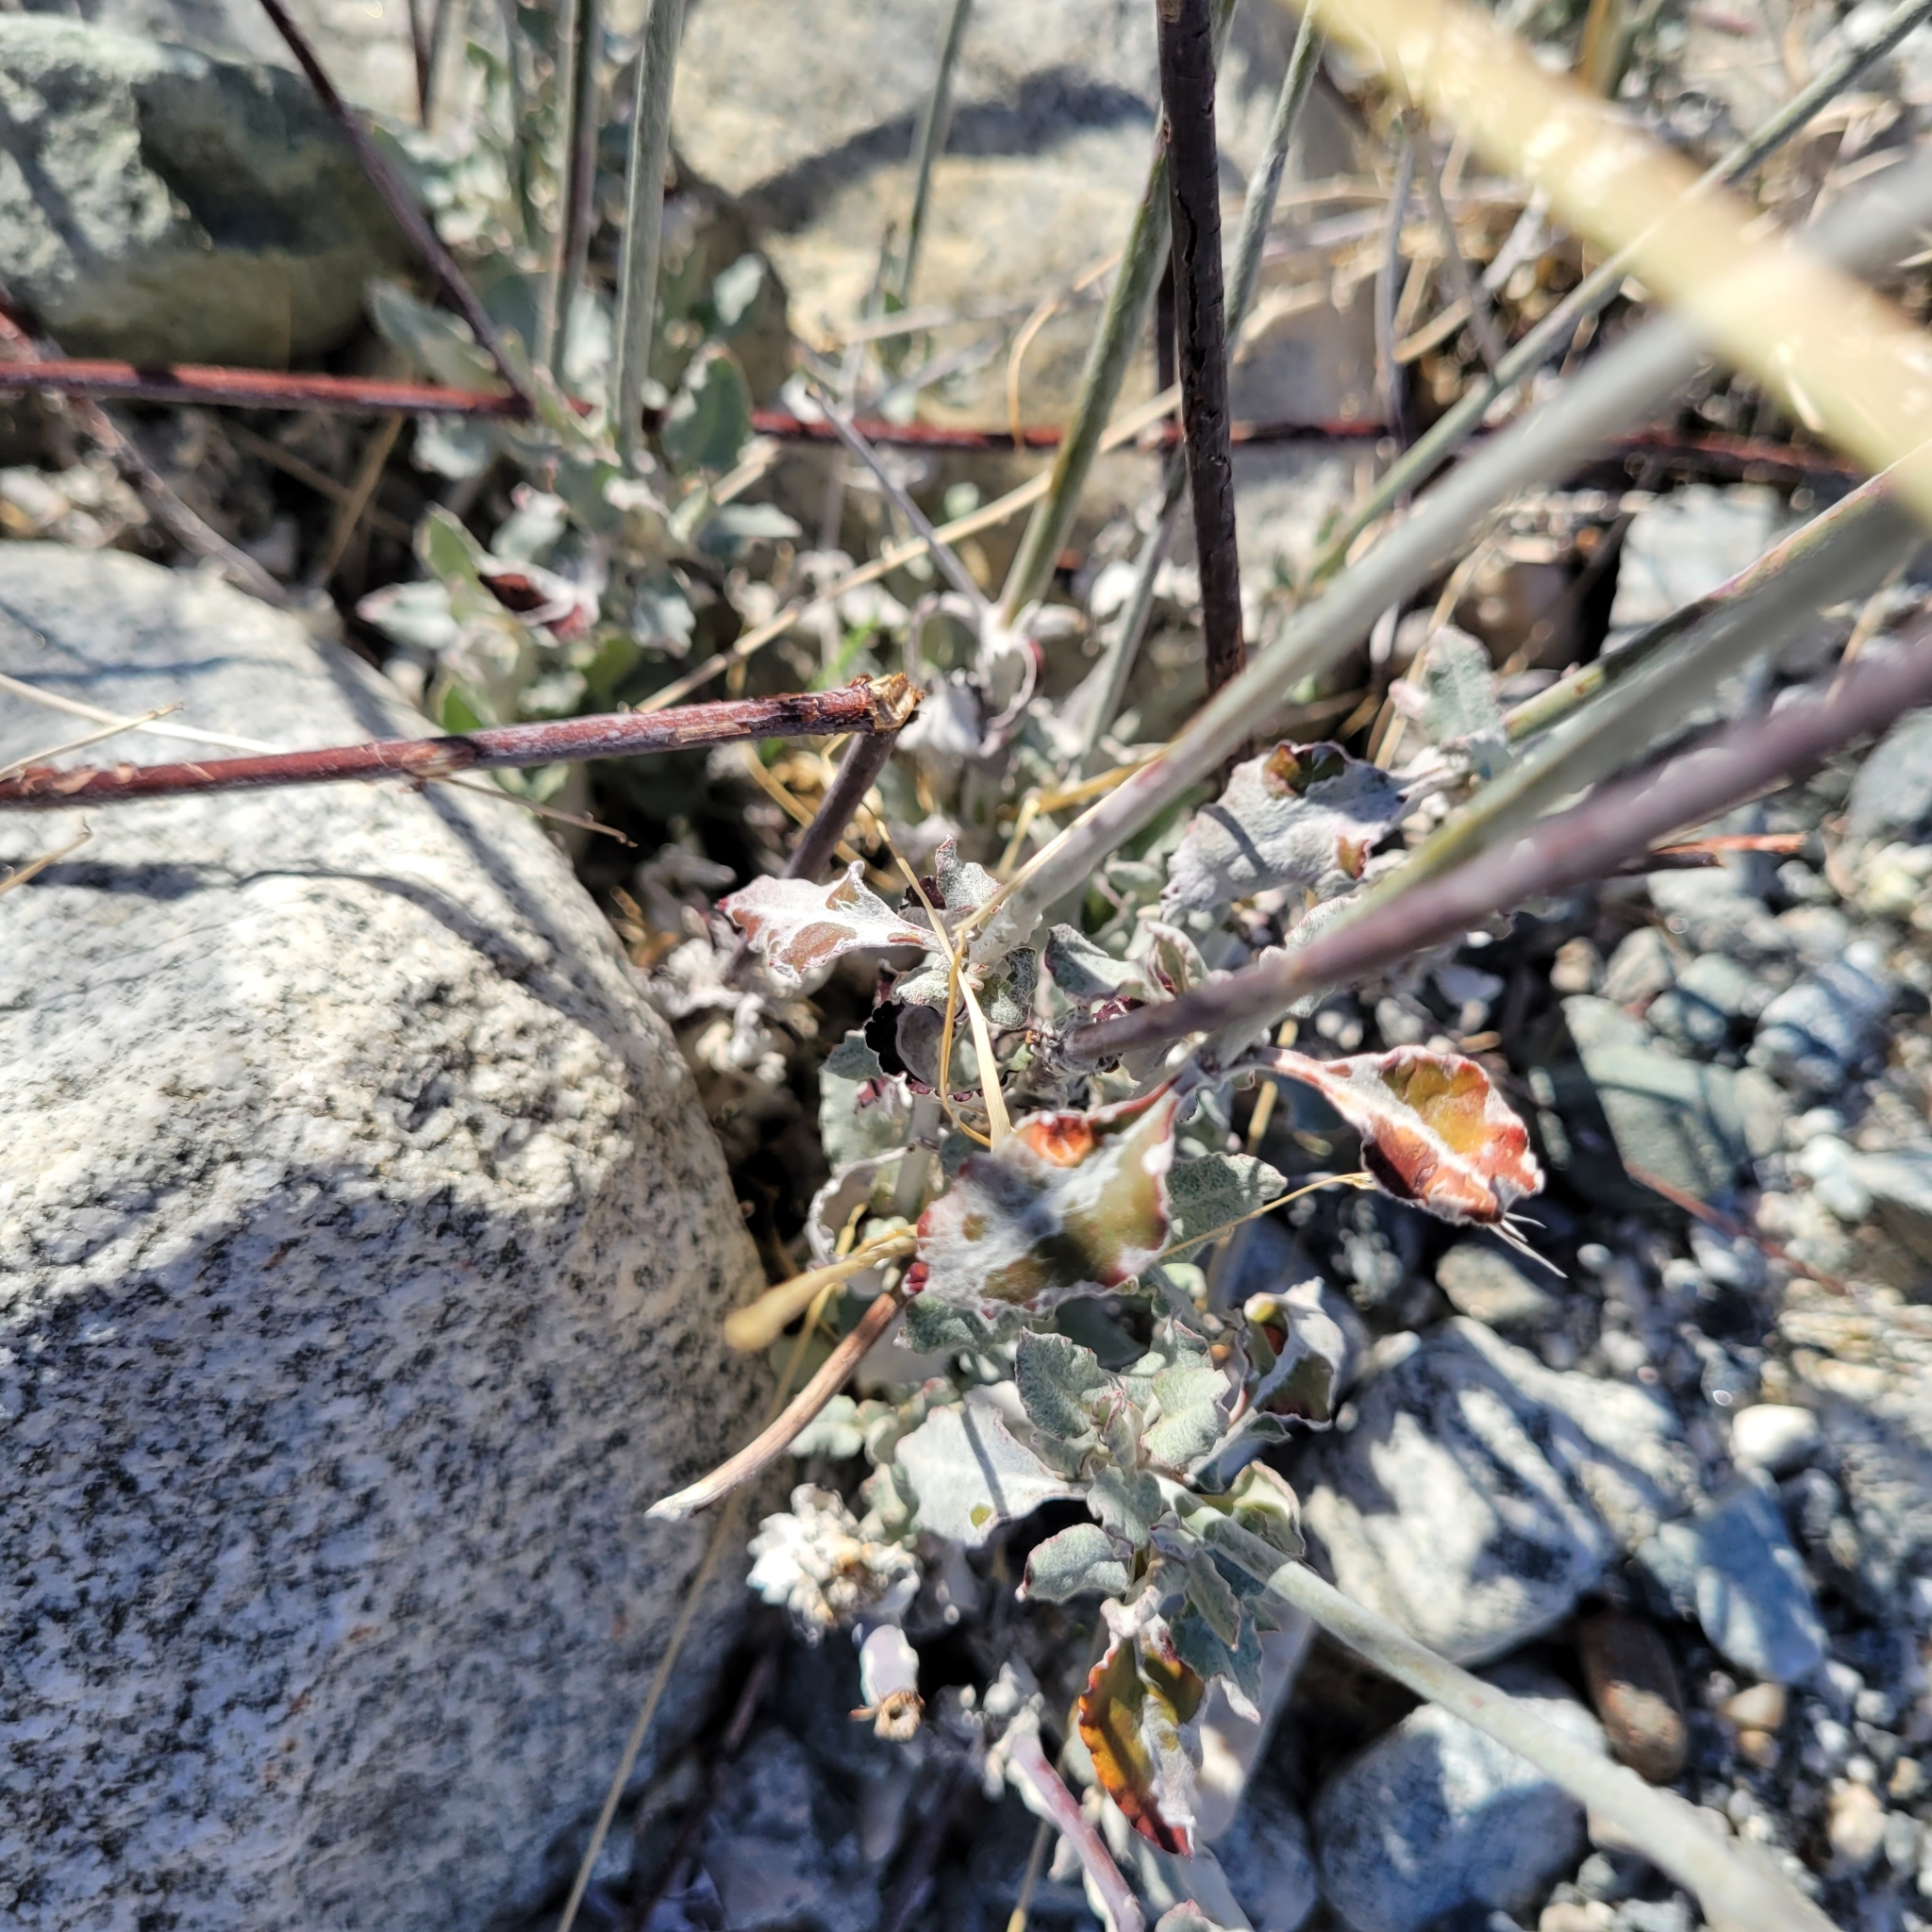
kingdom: Plantae
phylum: Tracheophyta
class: Magnoliopsida
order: Caryophyllales
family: Polygonaceae
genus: Eriogonum
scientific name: Eriogonum elongatum
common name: Long-stem wild buckwheat
